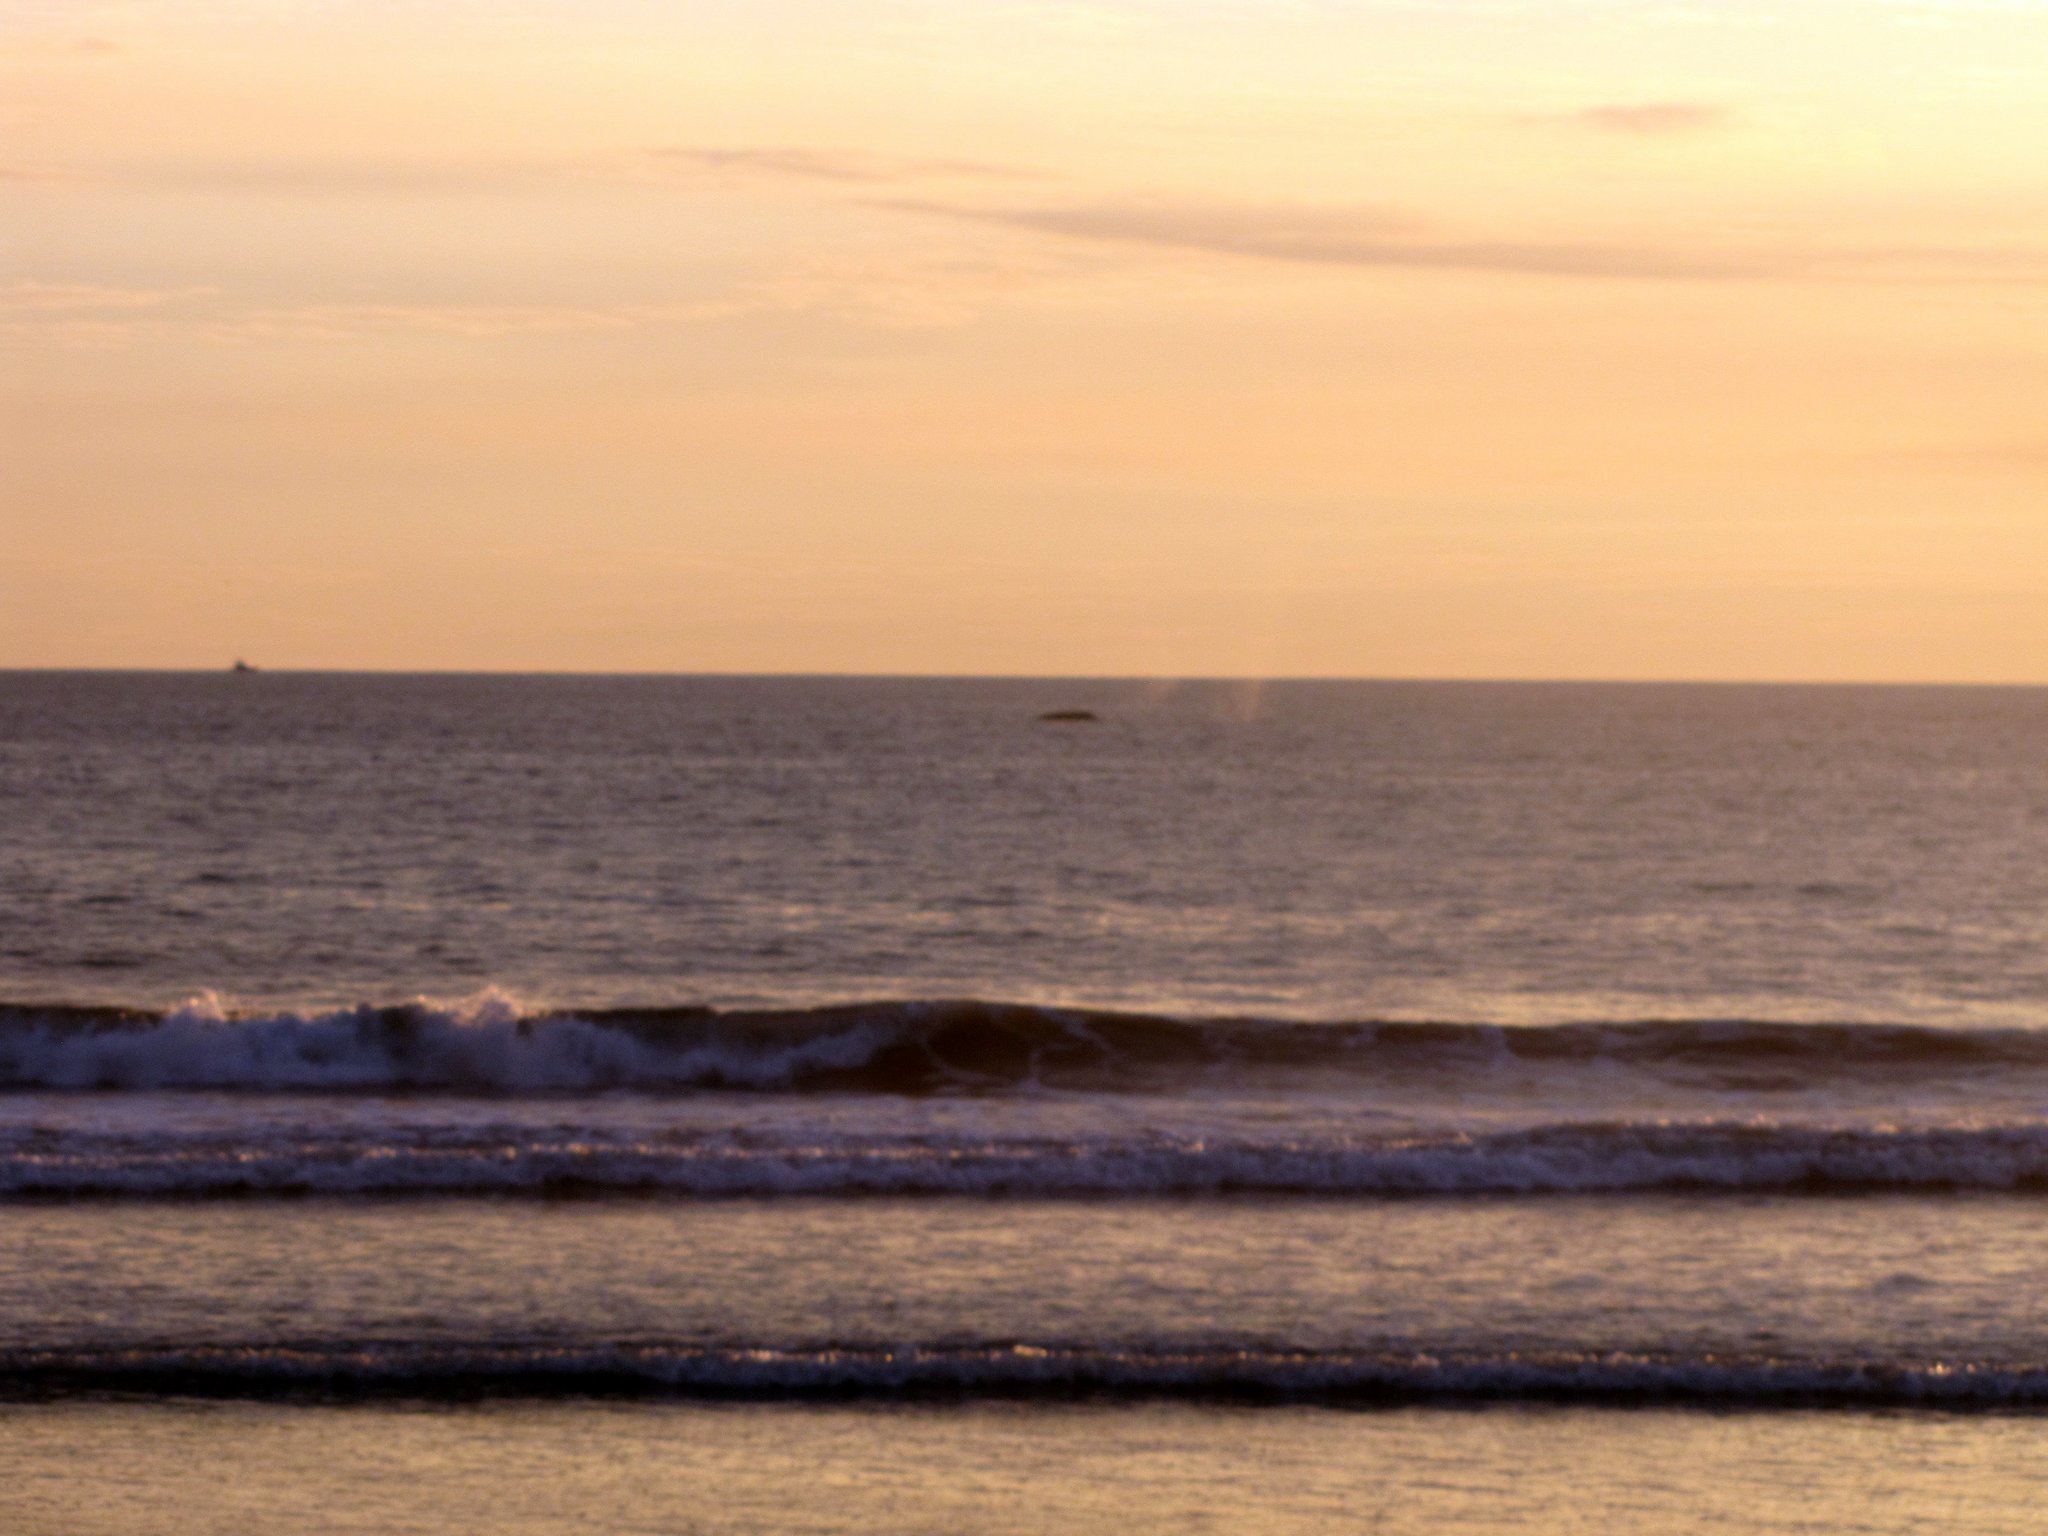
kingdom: Animalia
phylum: Chordata
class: Mammalia
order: Cetacea
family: Balaenopteridae
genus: Megaptera
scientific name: Megaptera novaeangliae
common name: Humpback whale
